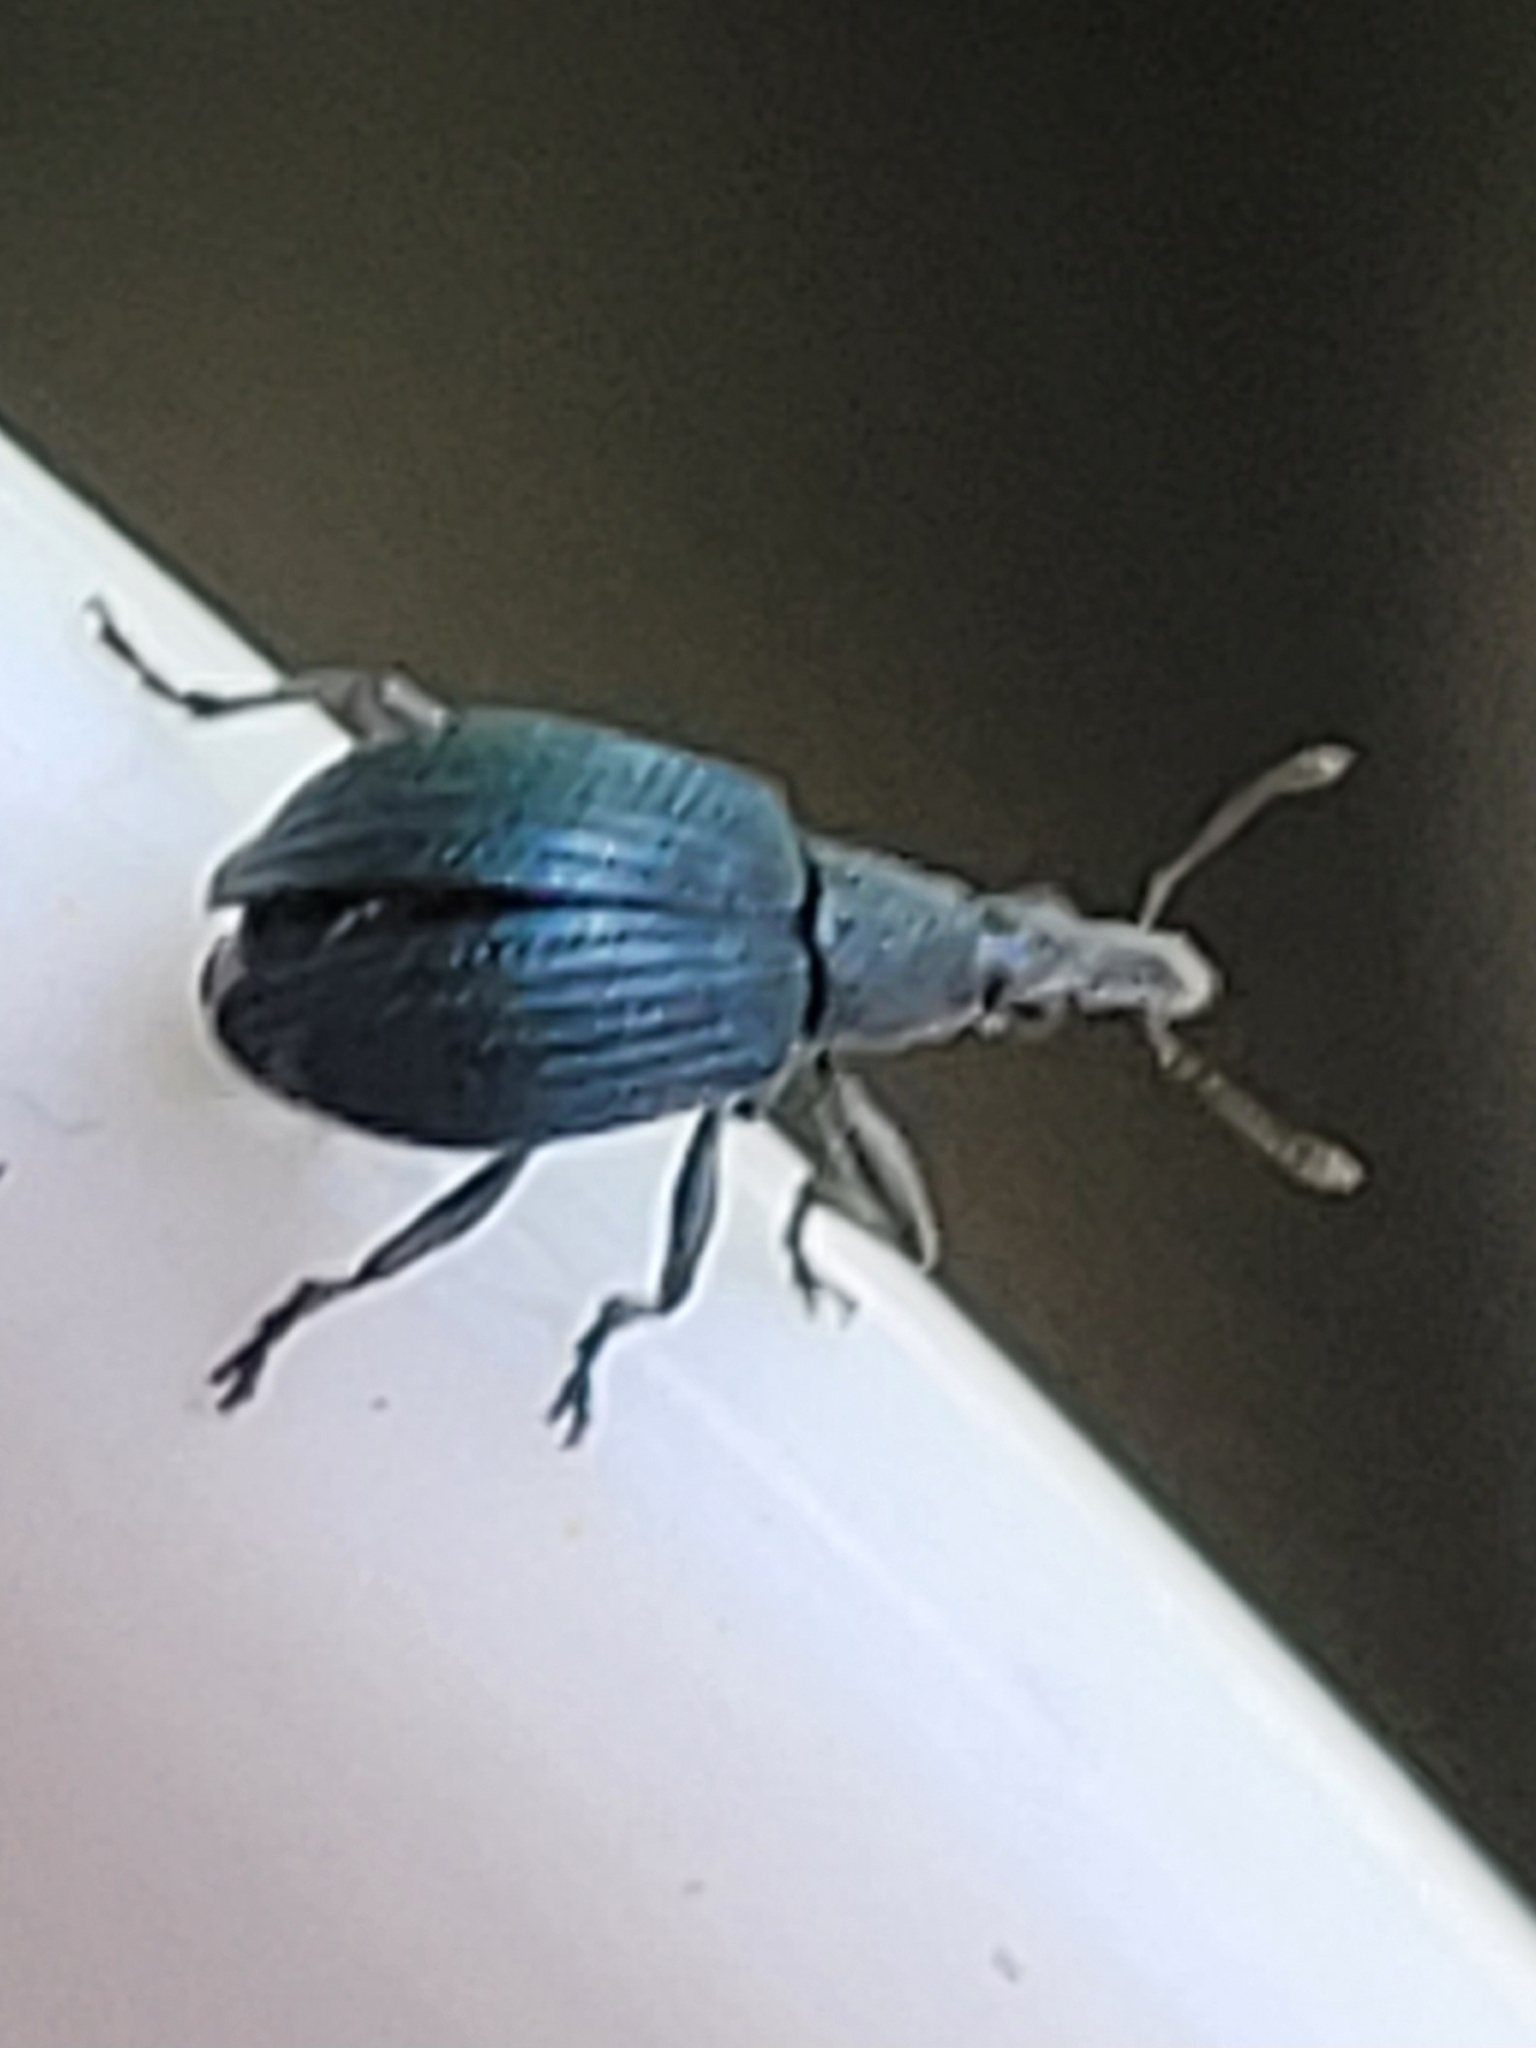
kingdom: Animalia
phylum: Arthropoda
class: Insecta
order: Coleoptera
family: Apionidae
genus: Oxystoma
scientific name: Oxystoma pomonae
